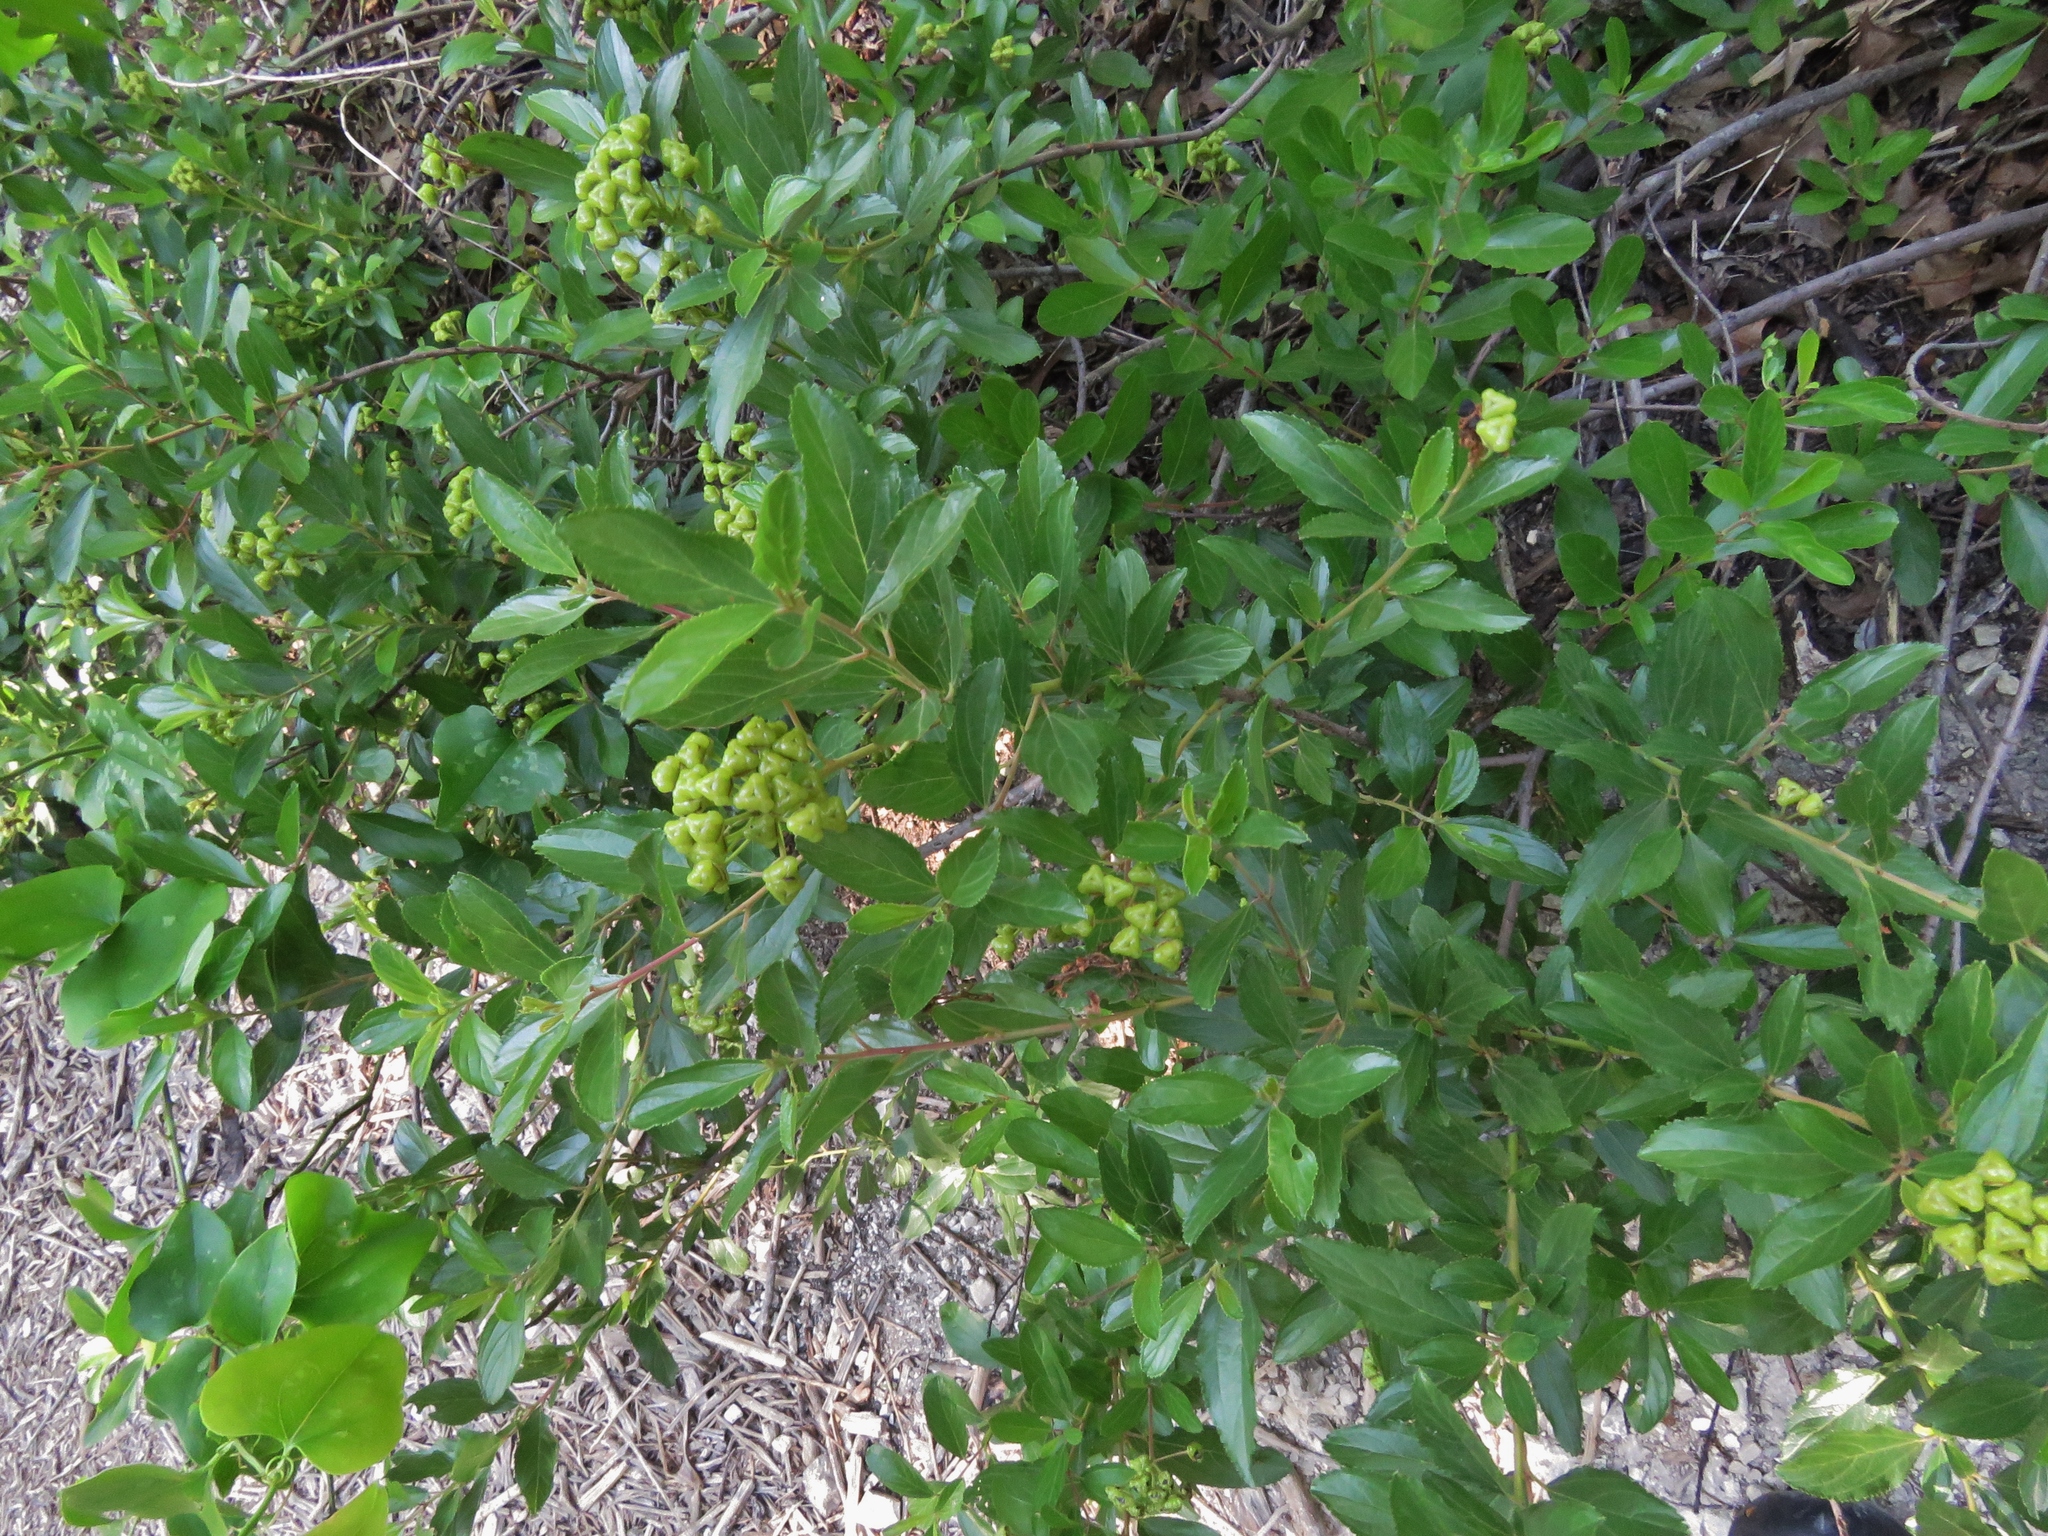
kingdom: Plantae
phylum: Tracheophyta
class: Magnoliopsida
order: Rosales
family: Rhamnaceae
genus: Ceanothus
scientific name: Ceanothus herbaceus
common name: Inland ceanothus
